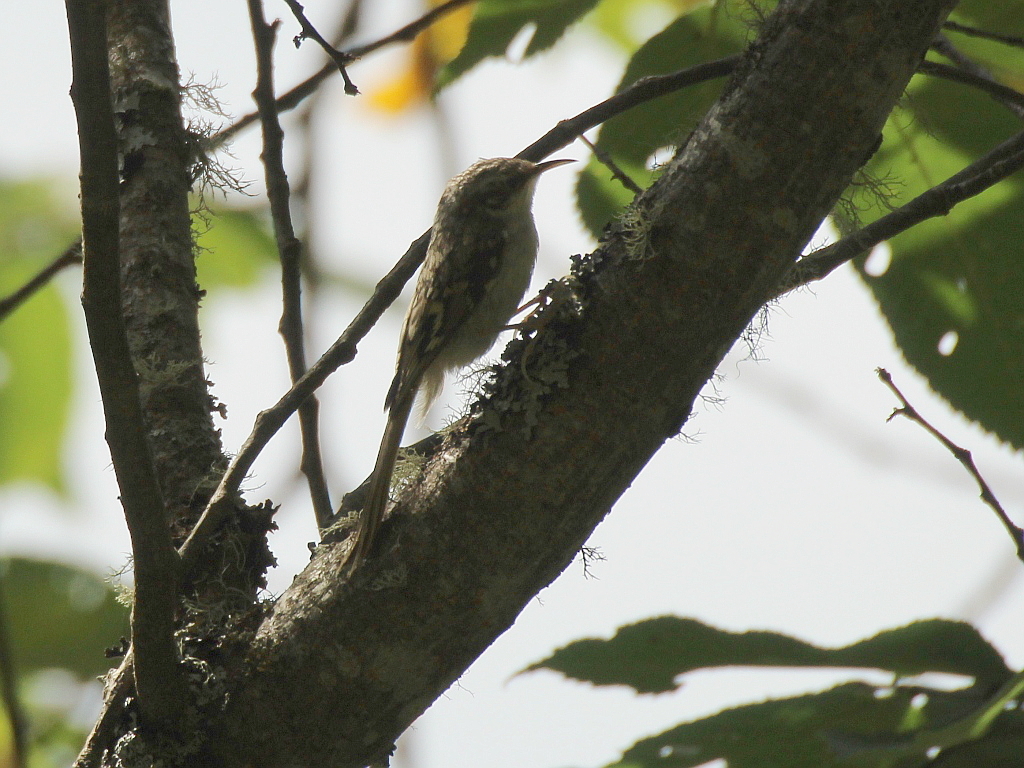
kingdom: Animalia
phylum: Chordata
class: Aves
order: Passeriformes
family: Certhiidae
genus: Certhia
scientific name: Certhia familiaris
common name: Eurasian treecreeper
